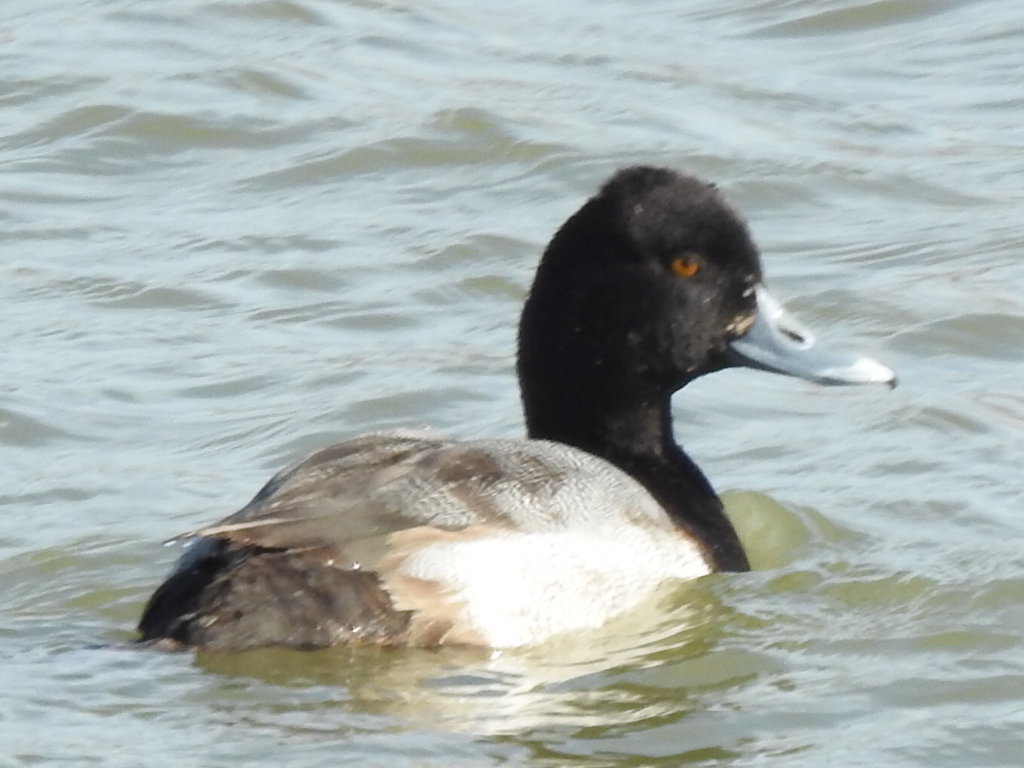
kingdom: Animalia
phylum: Chordata
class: Aves
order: Anseriformes
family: Anatidae
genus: Aythya
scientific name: Aythya affinis
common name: Lesser scaup
